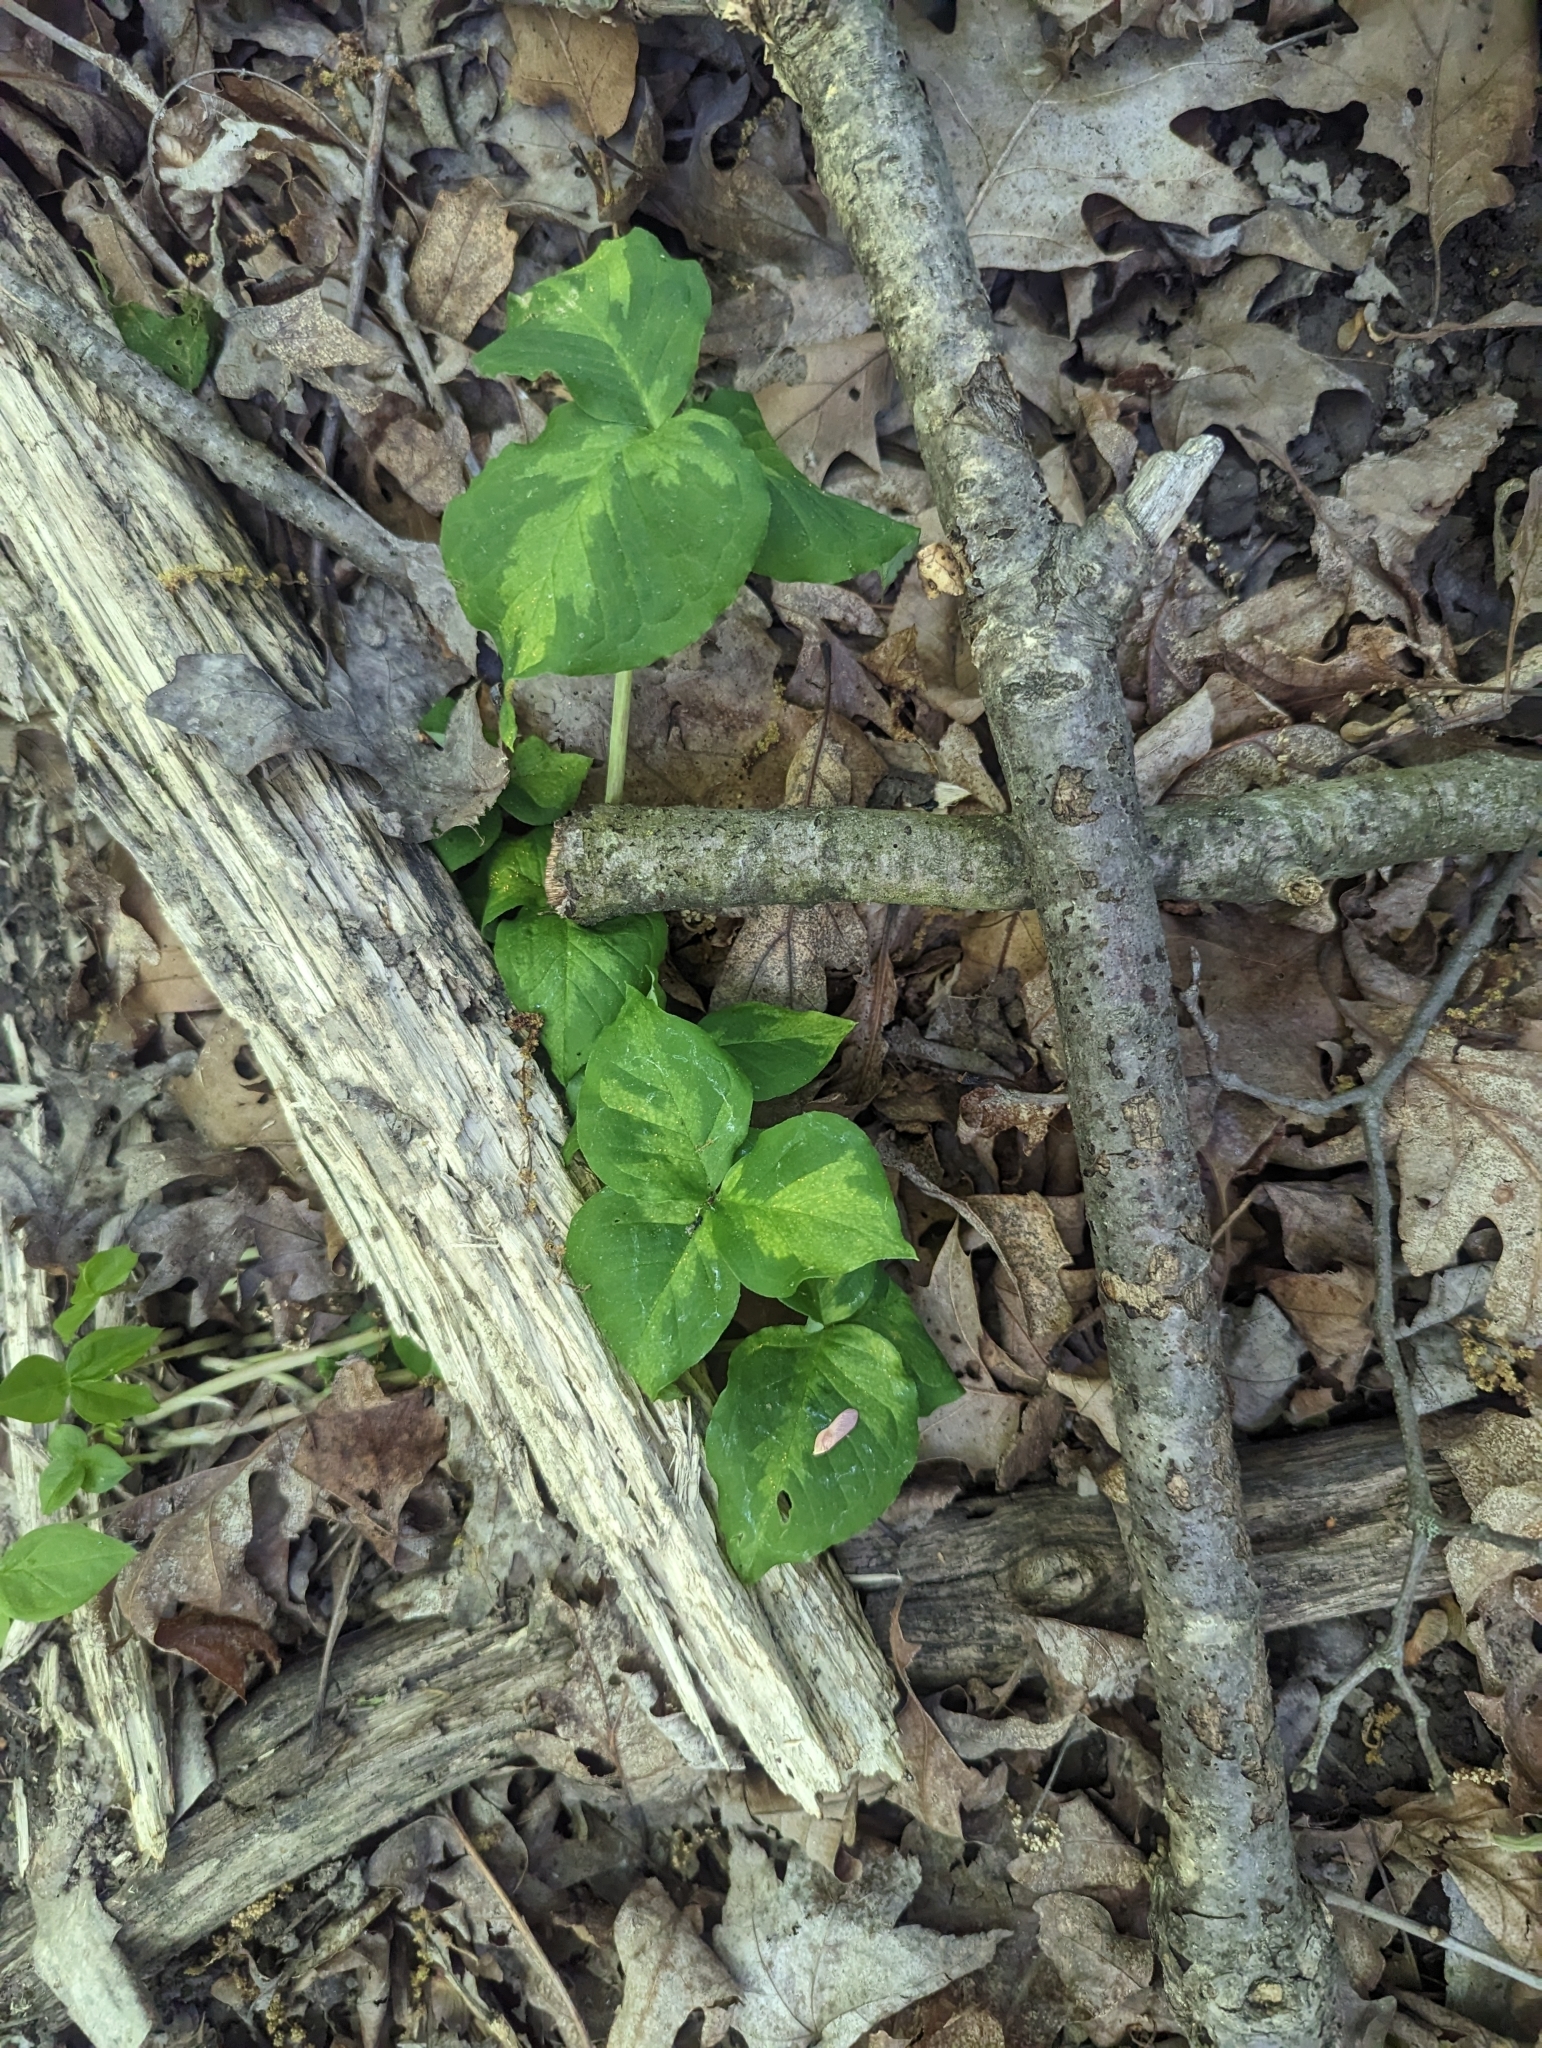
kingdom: Plantae
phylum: Tracheophyta
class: Liliopsida
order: Alismatales
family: Araceae
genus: Arisaema
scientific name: Arisaema triphyllum
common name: Jack-in-the-pulpit
